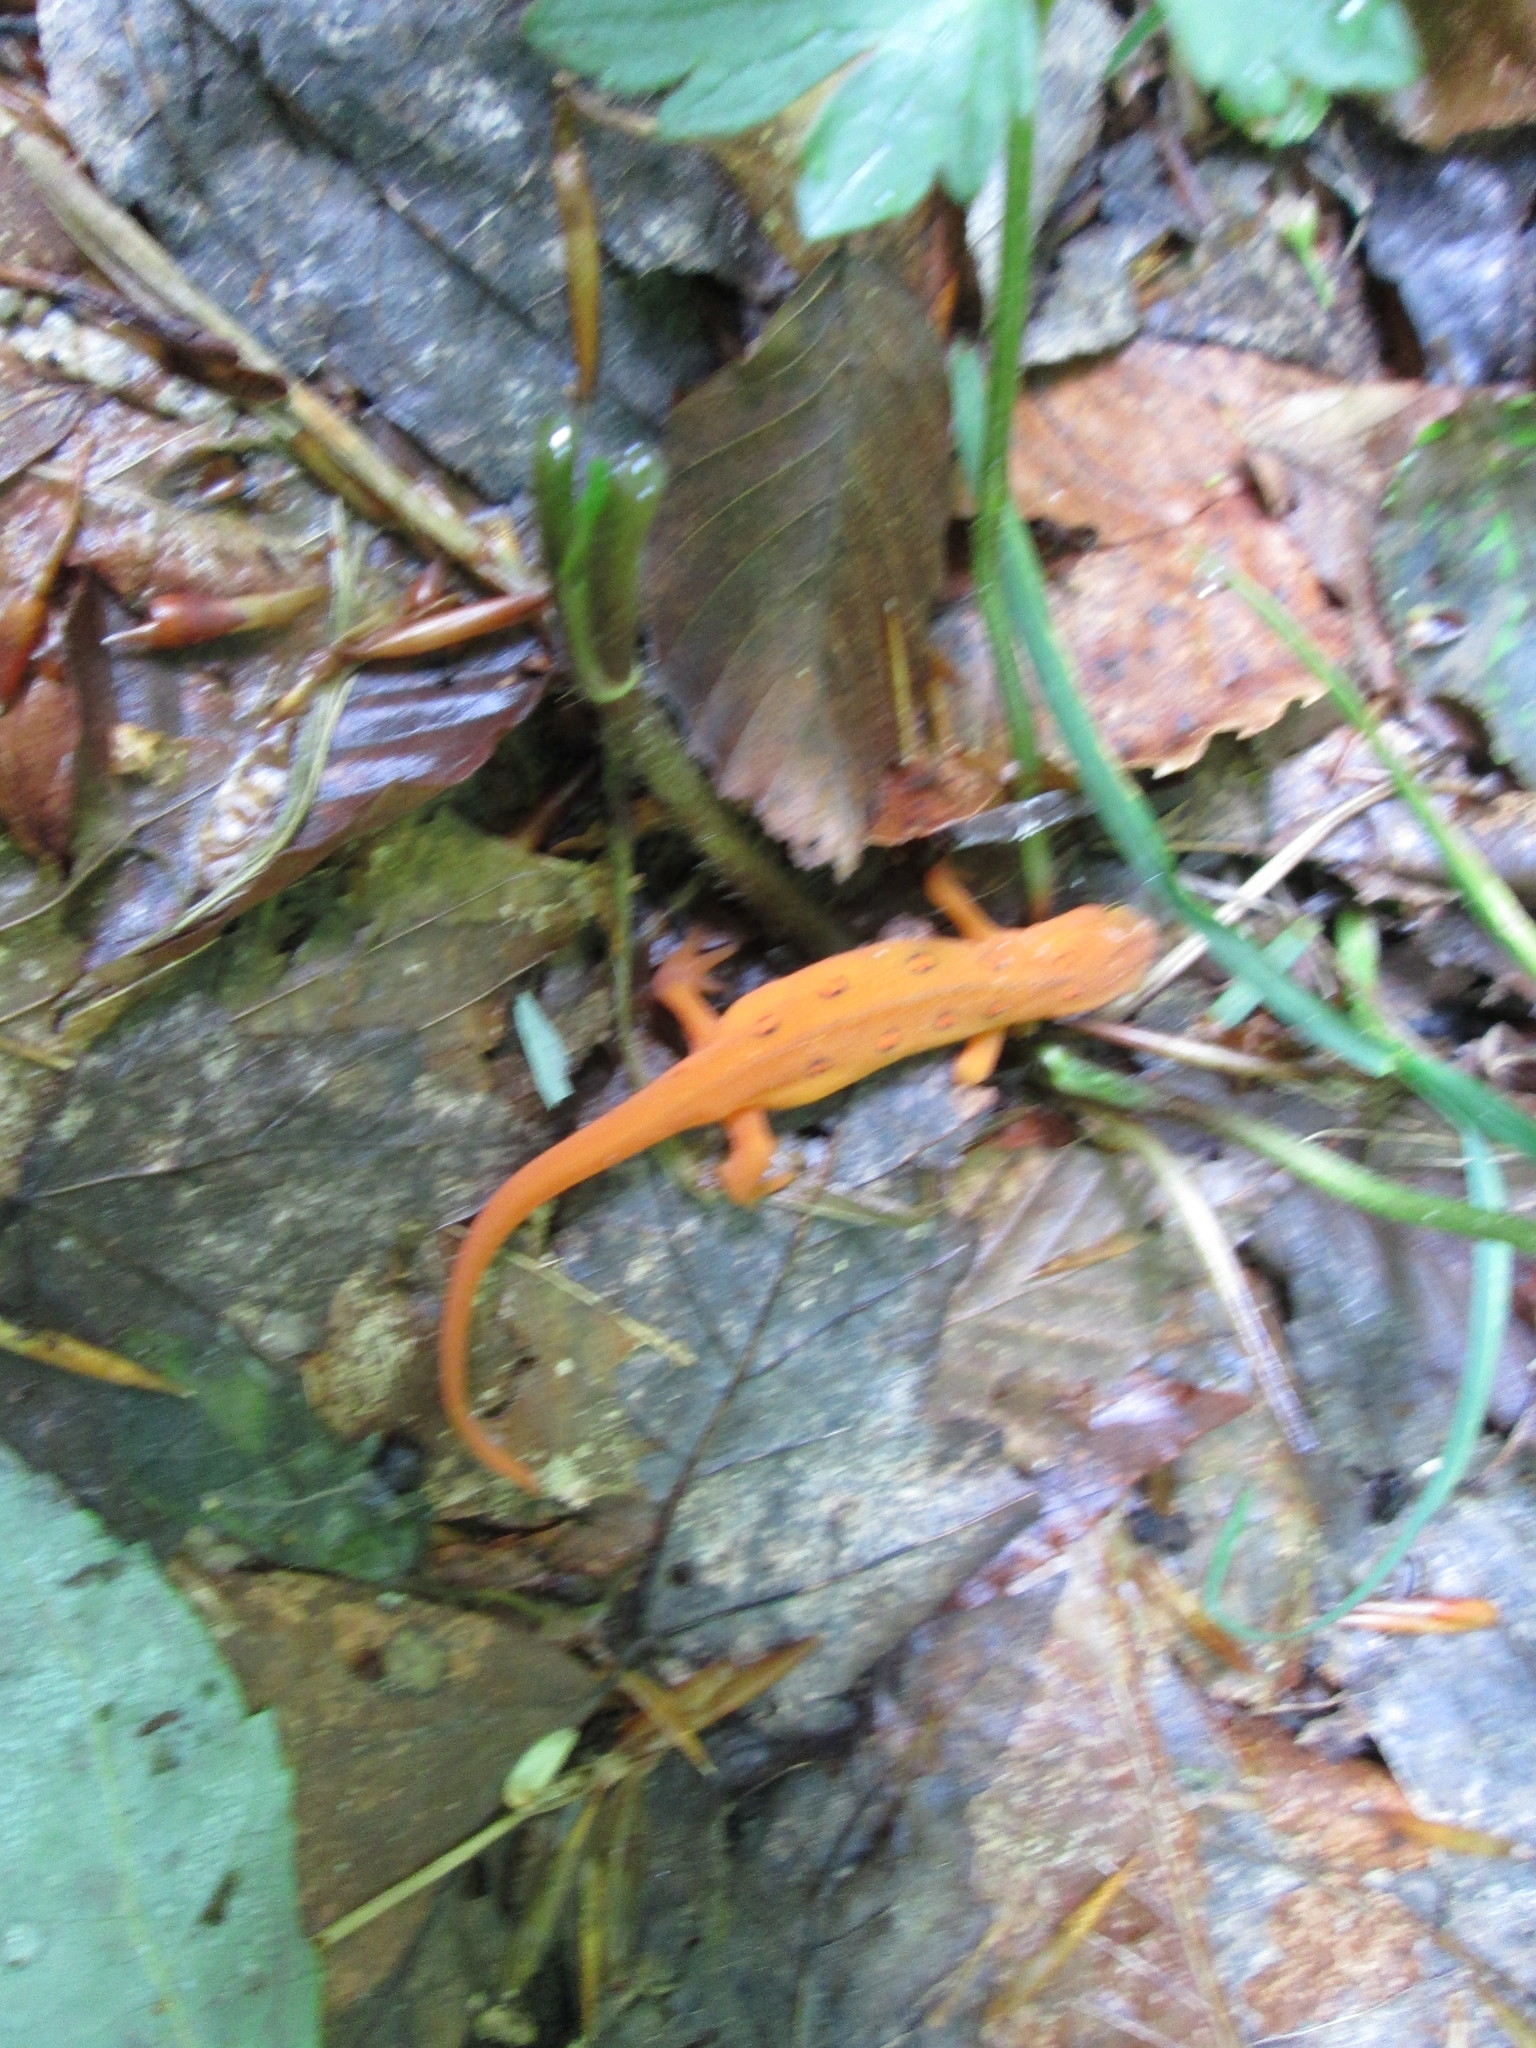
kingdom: Animalia
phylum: Chordata
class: Amphibia
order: Caudata
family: Salamandridae
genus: Notophthalmus
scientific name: Notophthalmus viridescens
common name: Eastern newt
